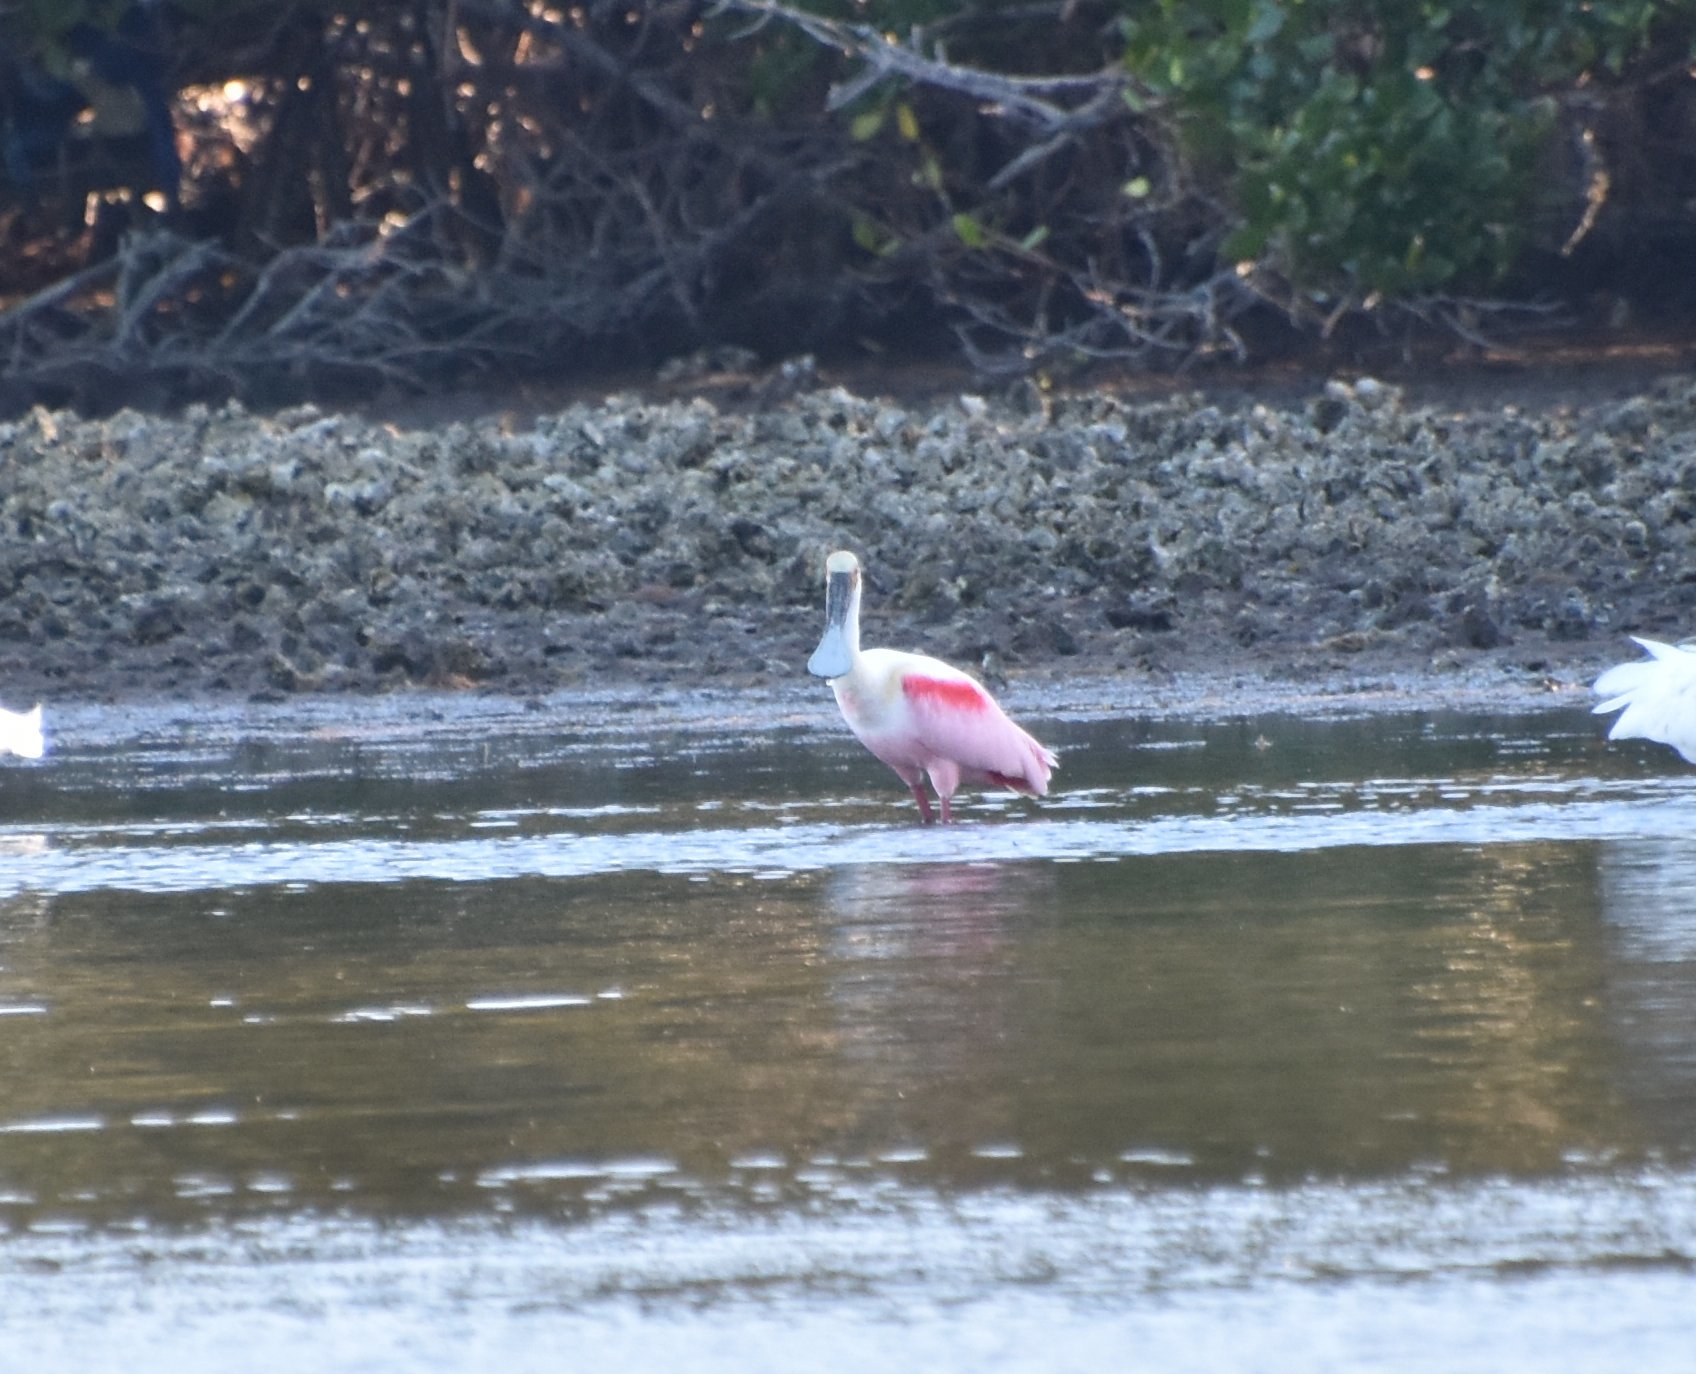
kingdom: Animalia
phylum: Chordata
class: Aves
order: Pelecaniformes
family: Threskiornithidae
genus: Platalea
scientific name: Platalea ajaja
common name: Roseate spoonbill
